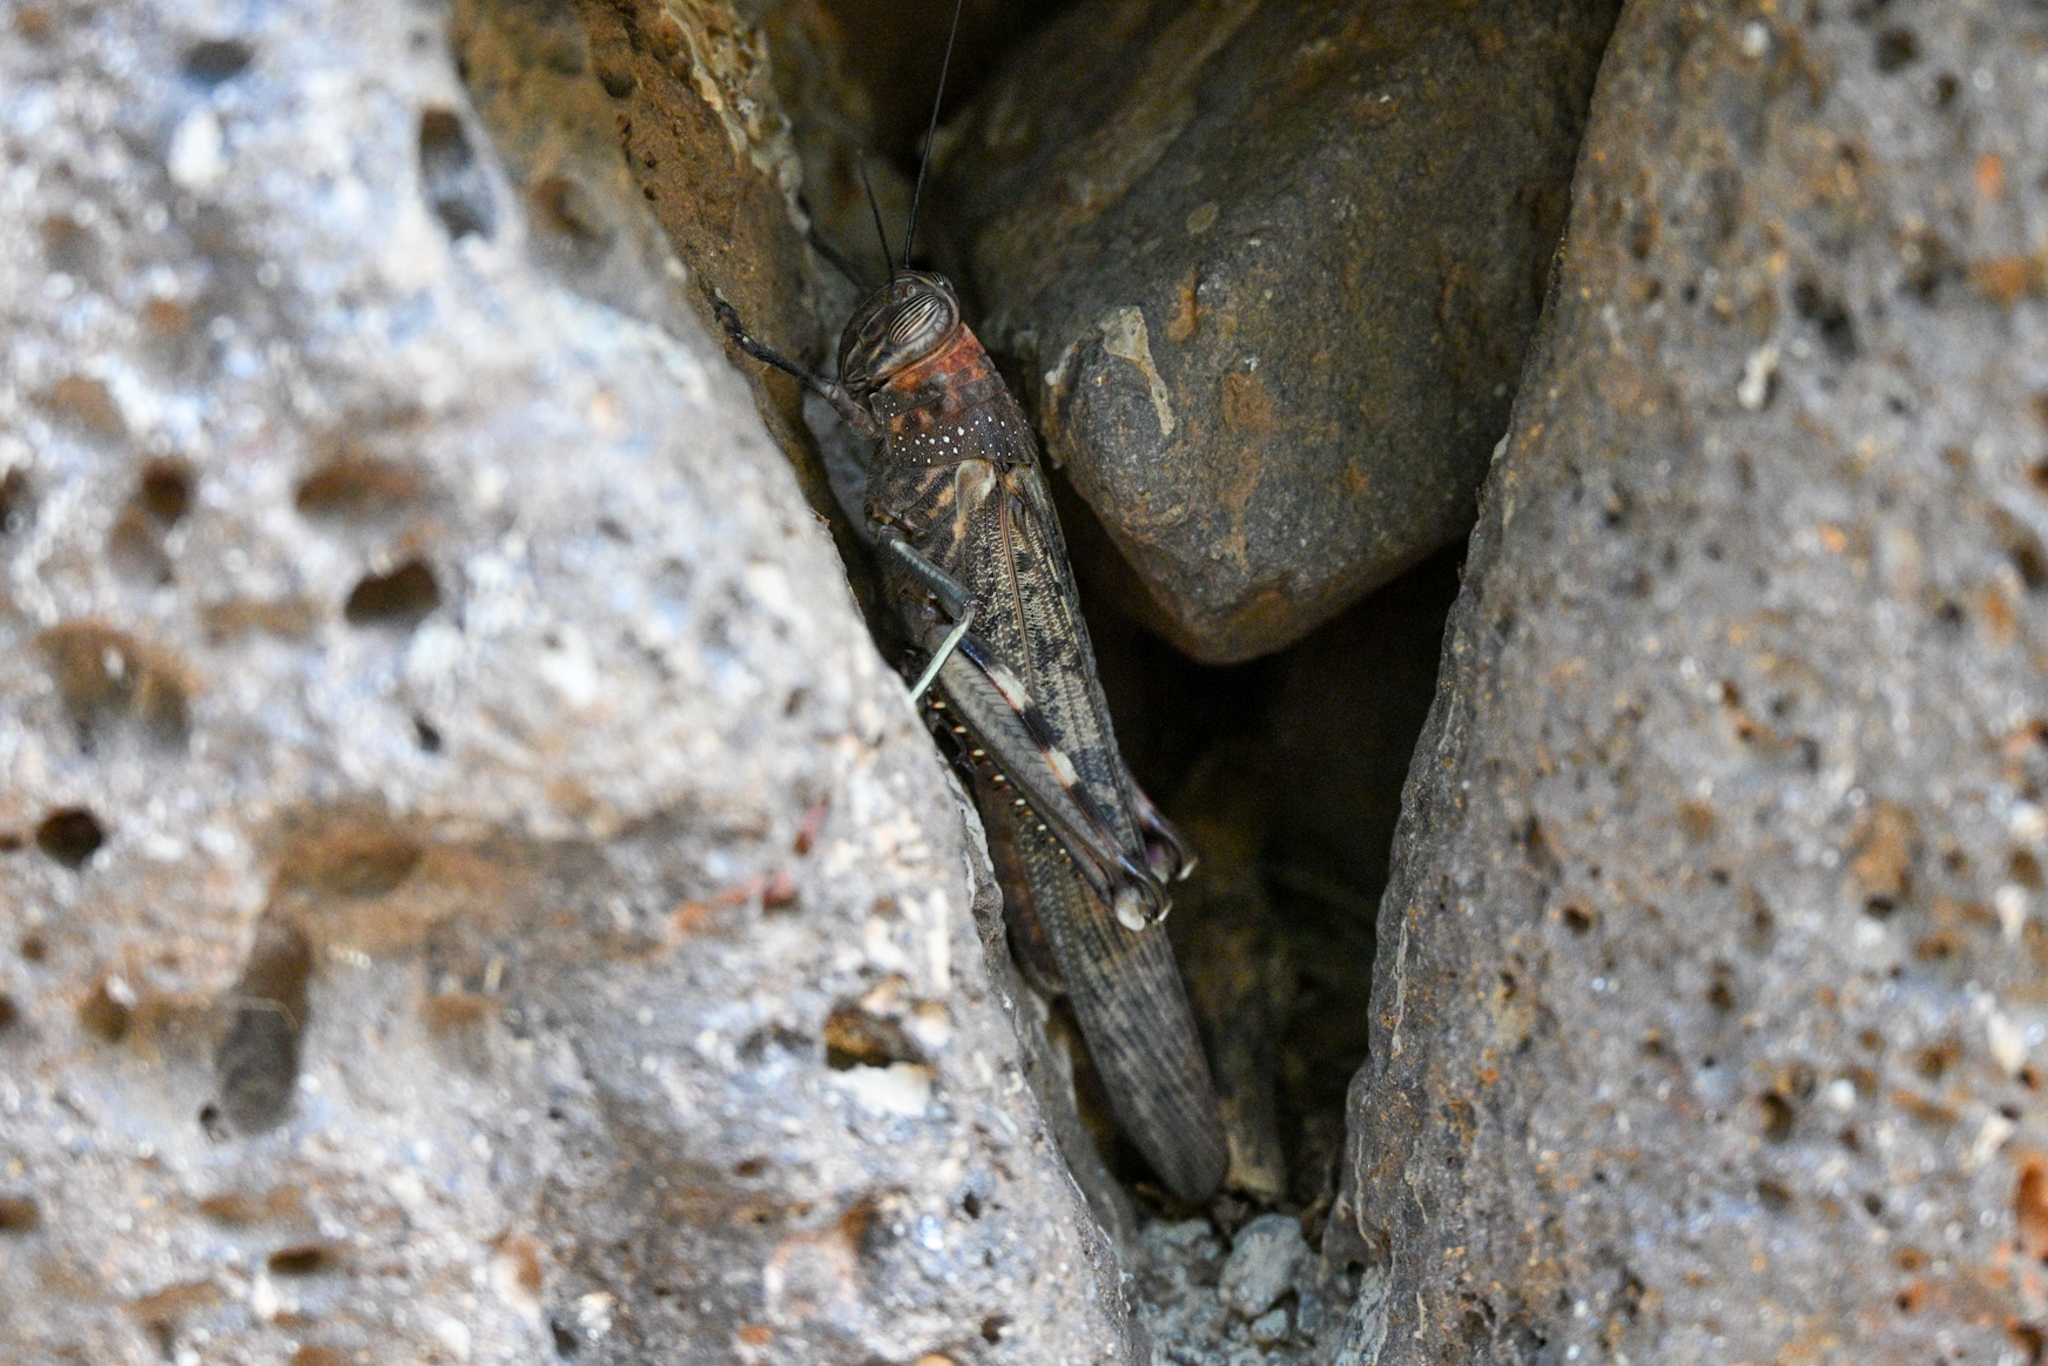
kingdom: Animalia
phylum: Arthropoda
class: Insecta
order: Orthoptera
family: Acrididae
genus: Anacridium
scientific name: Anacridium melanorhodon
